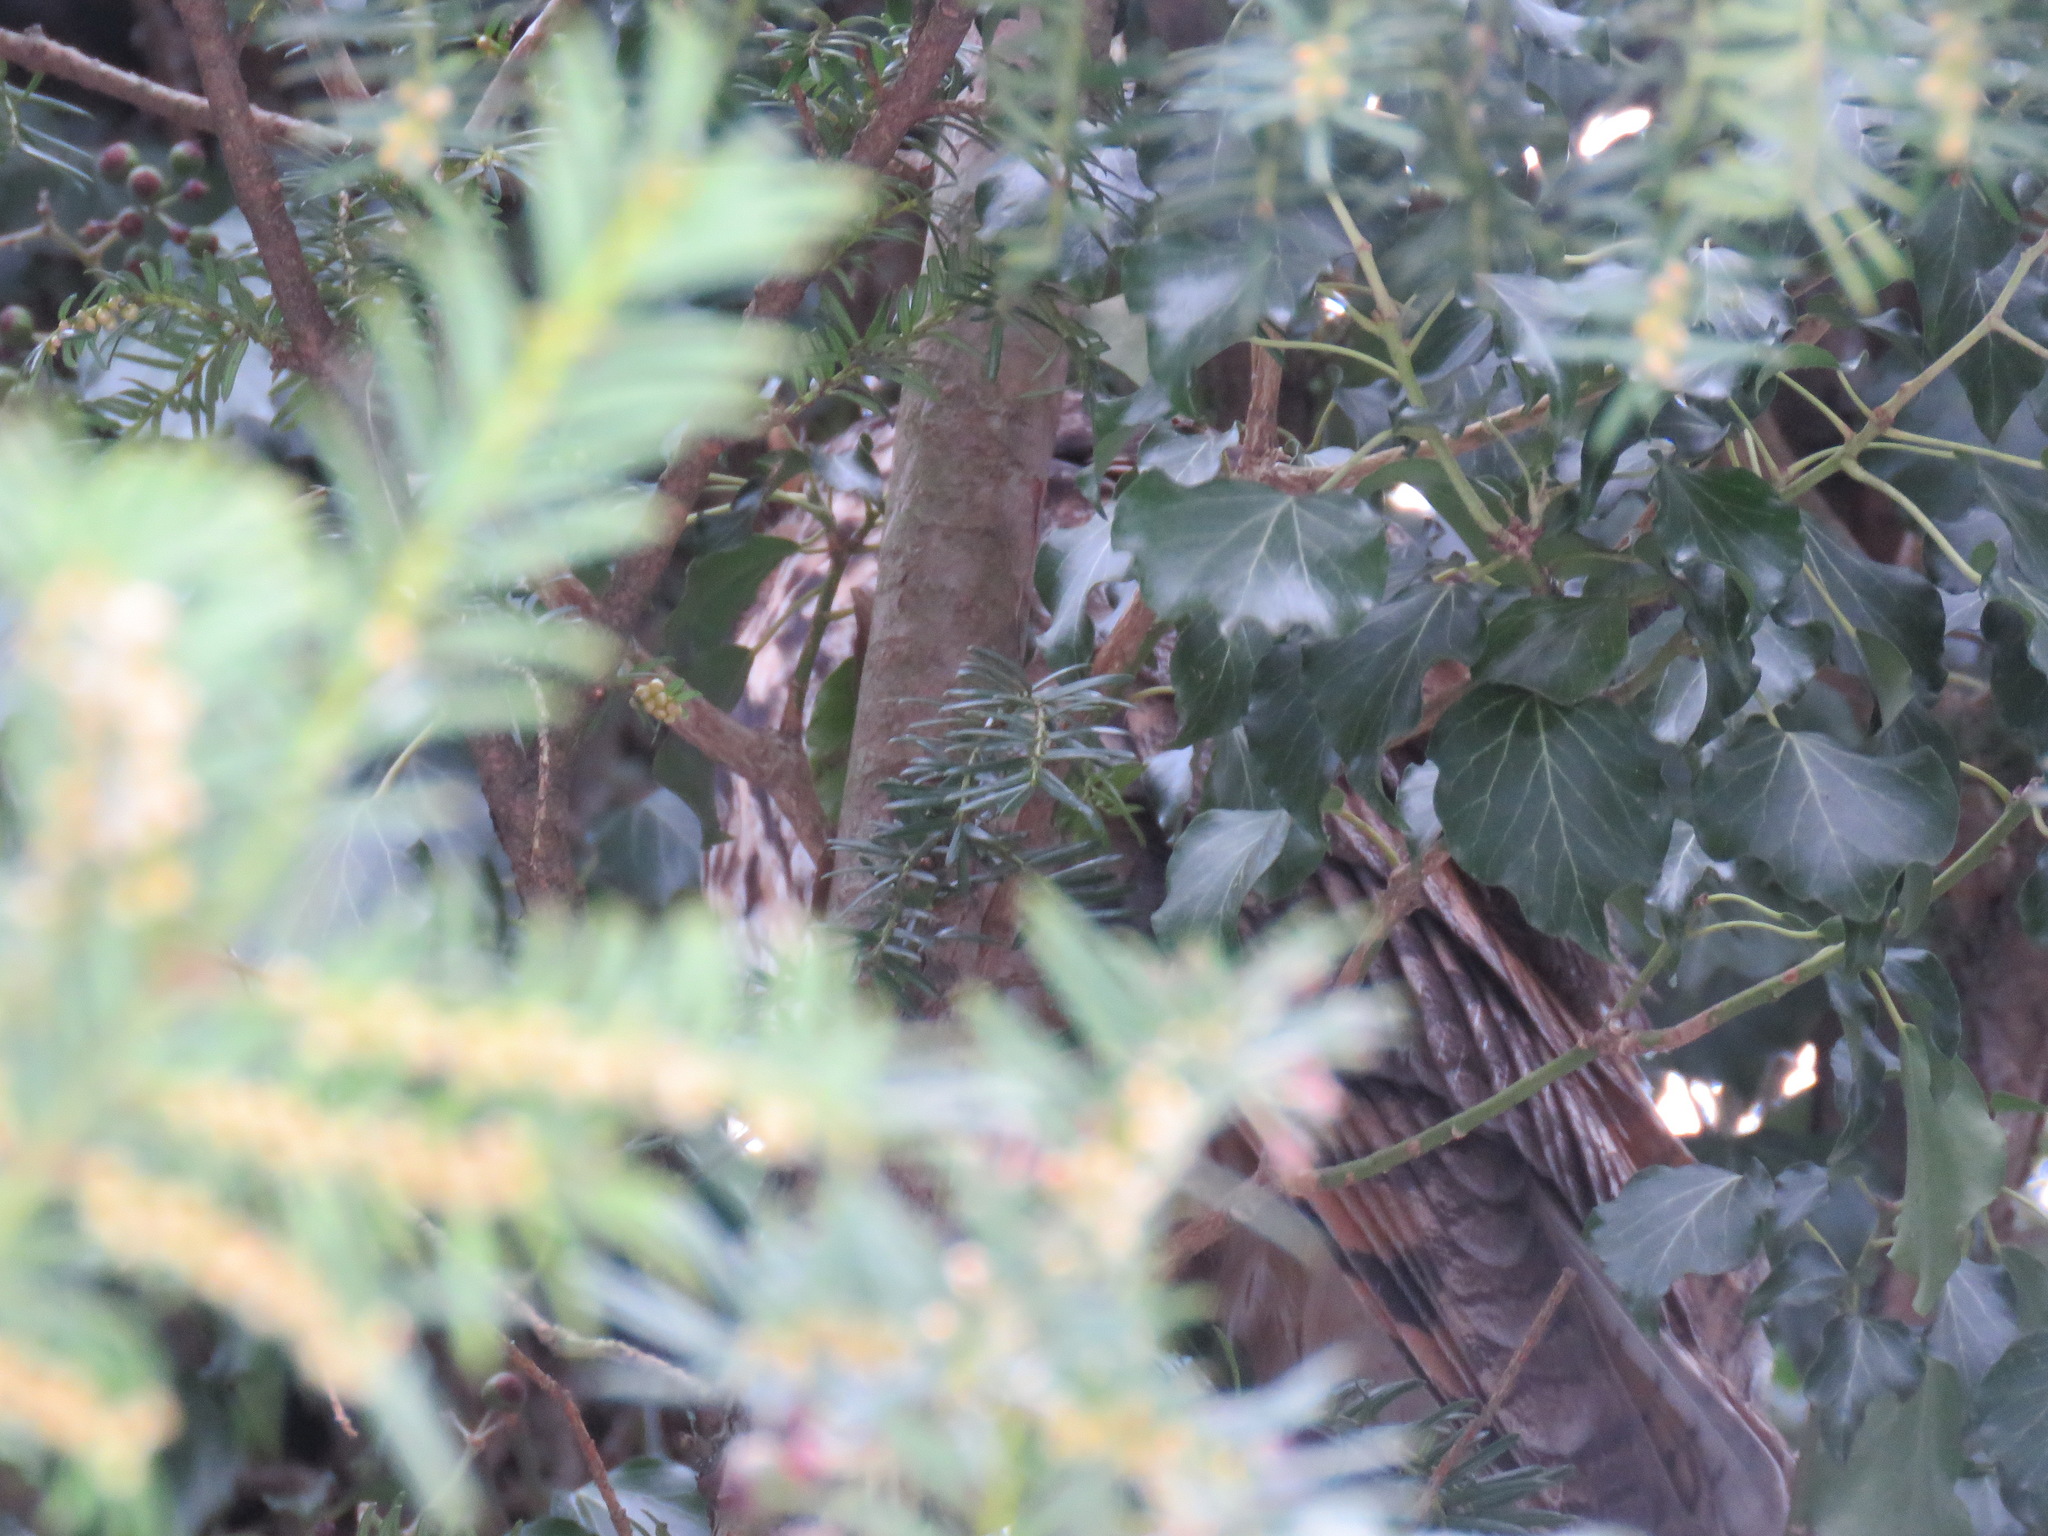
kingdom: Animalia
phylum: Chordata
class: Aves
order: Strigiformes
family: Strigidae
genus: Asio
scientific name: Asio otus
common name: Long-eared owl
